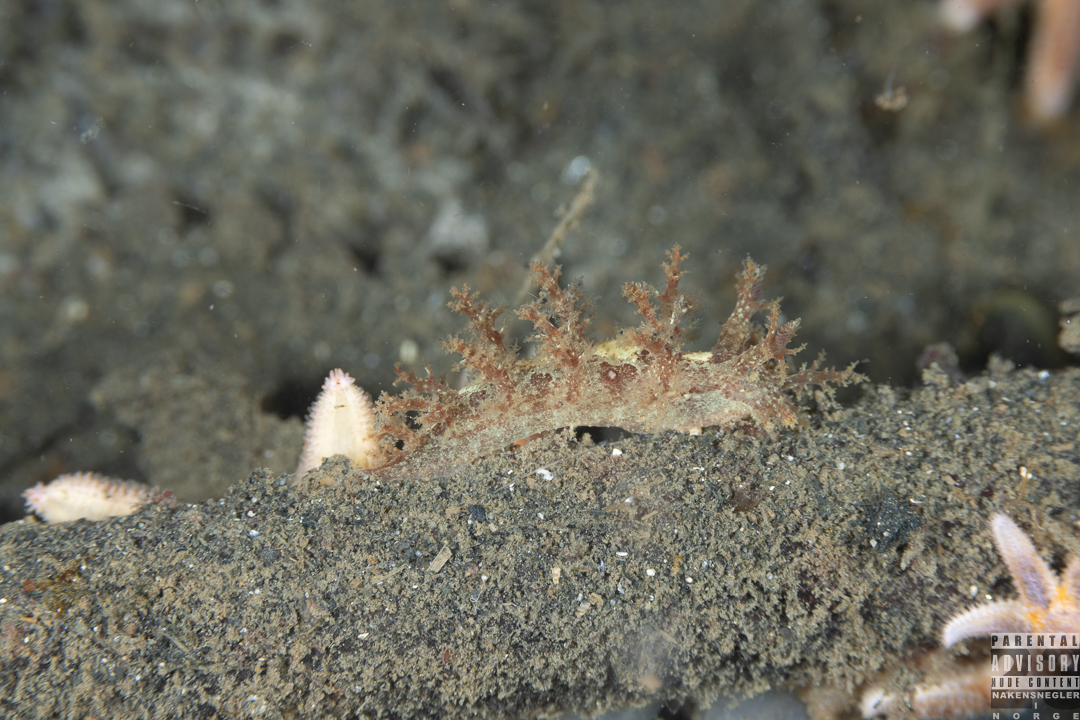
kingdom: Animalia
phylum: Mollusca
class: Gastropoda
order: Nudibranchia
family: Dendronotidae
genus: Dendronotus
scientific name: Dendronotus lacteus
